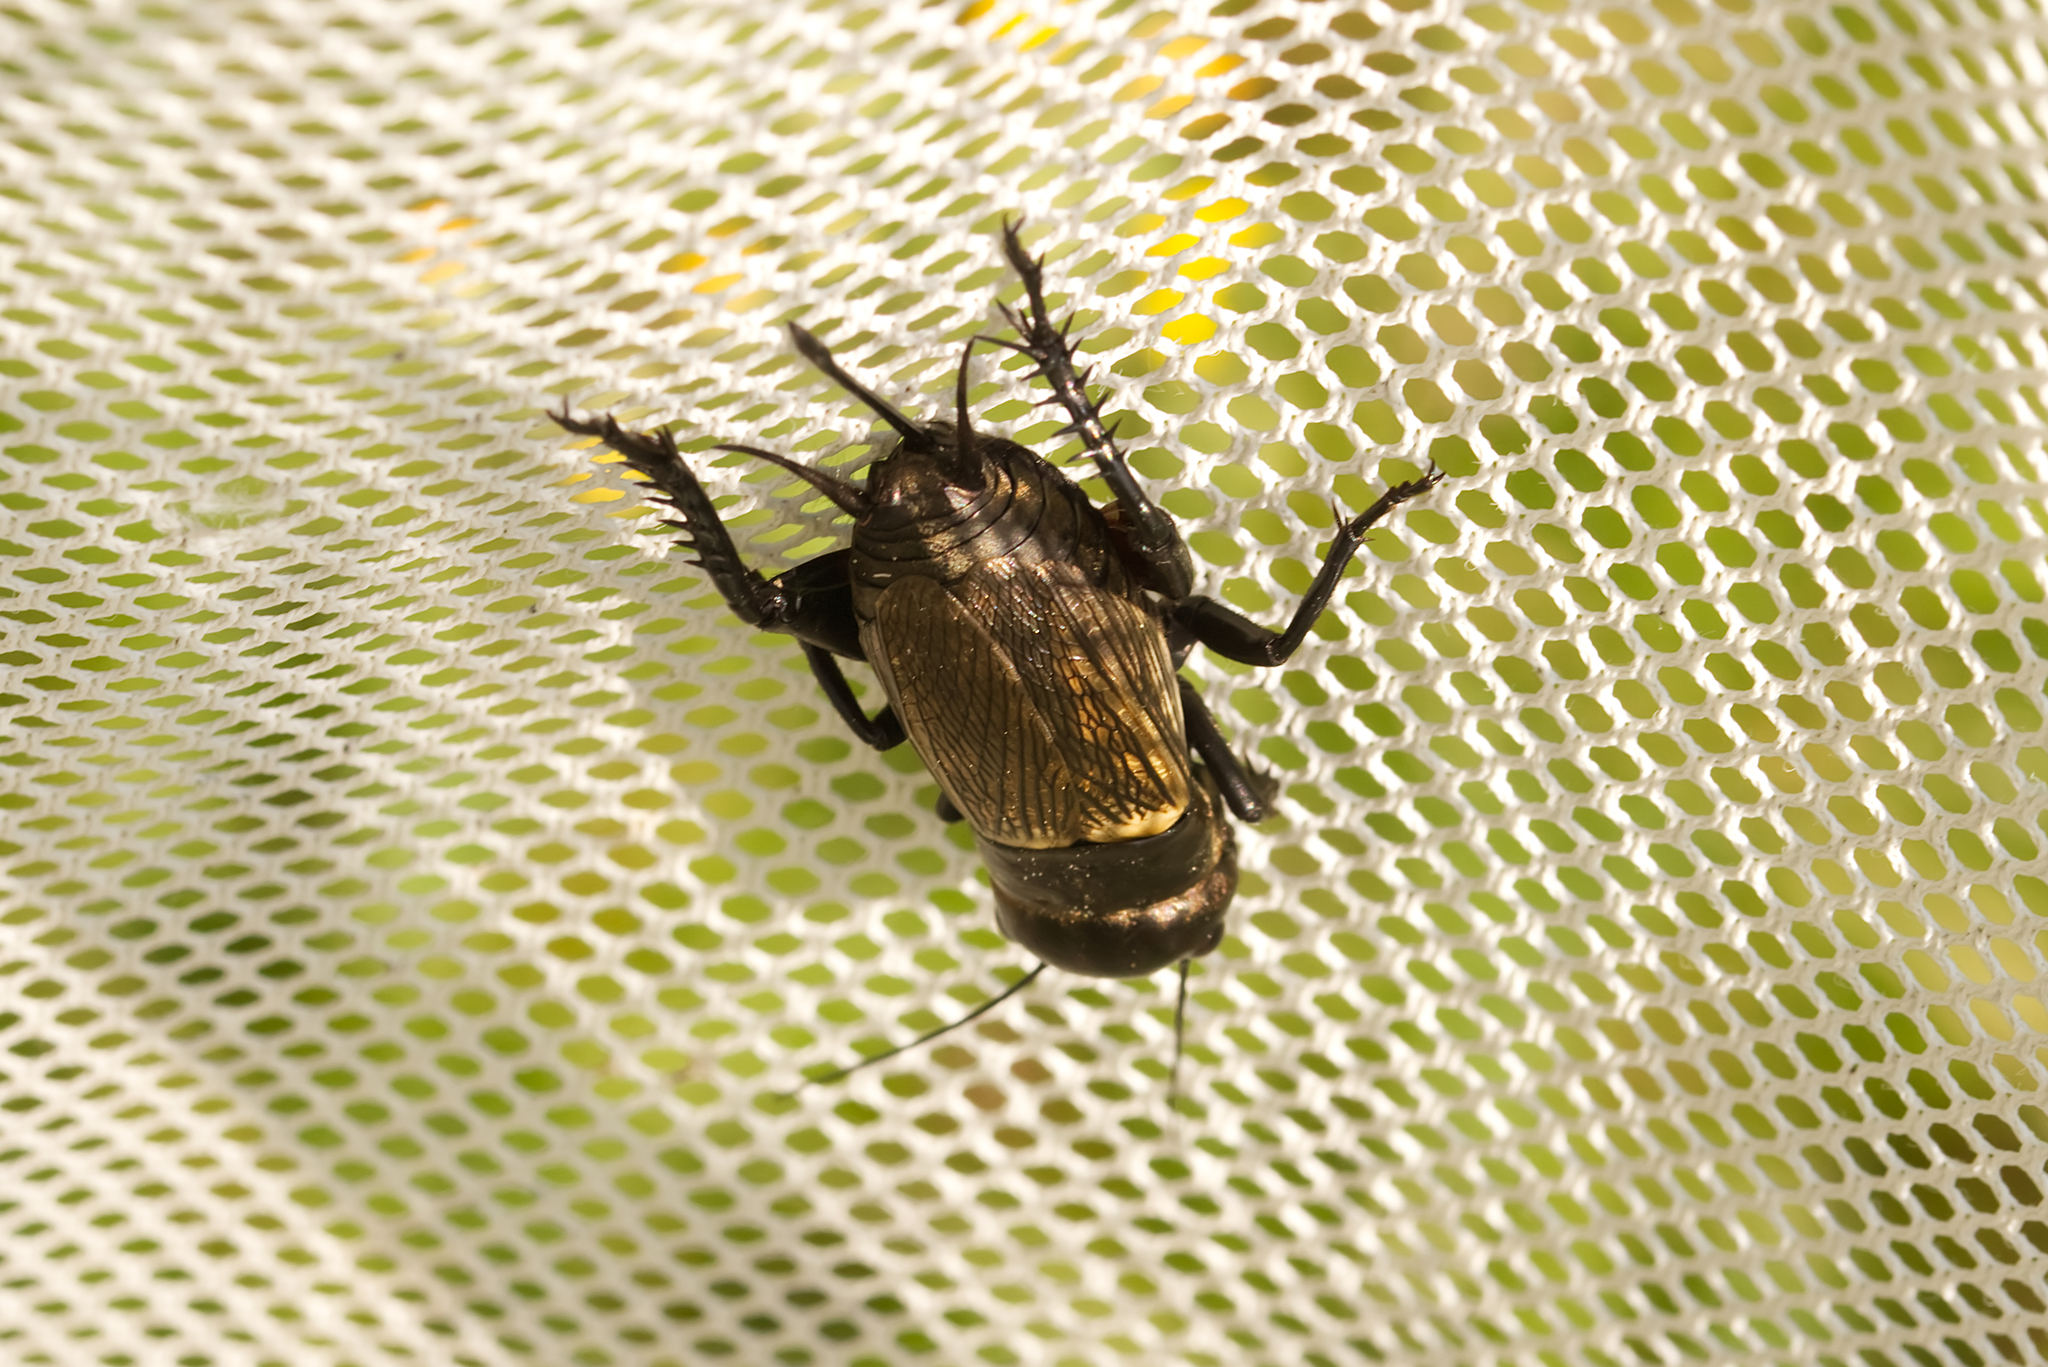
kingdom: Animalia
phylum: Arthropoda
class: Insecta
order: Orthoptera
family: Gryllidae
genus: Gryllus
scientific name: Gryllus campestris
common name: Field cricket
